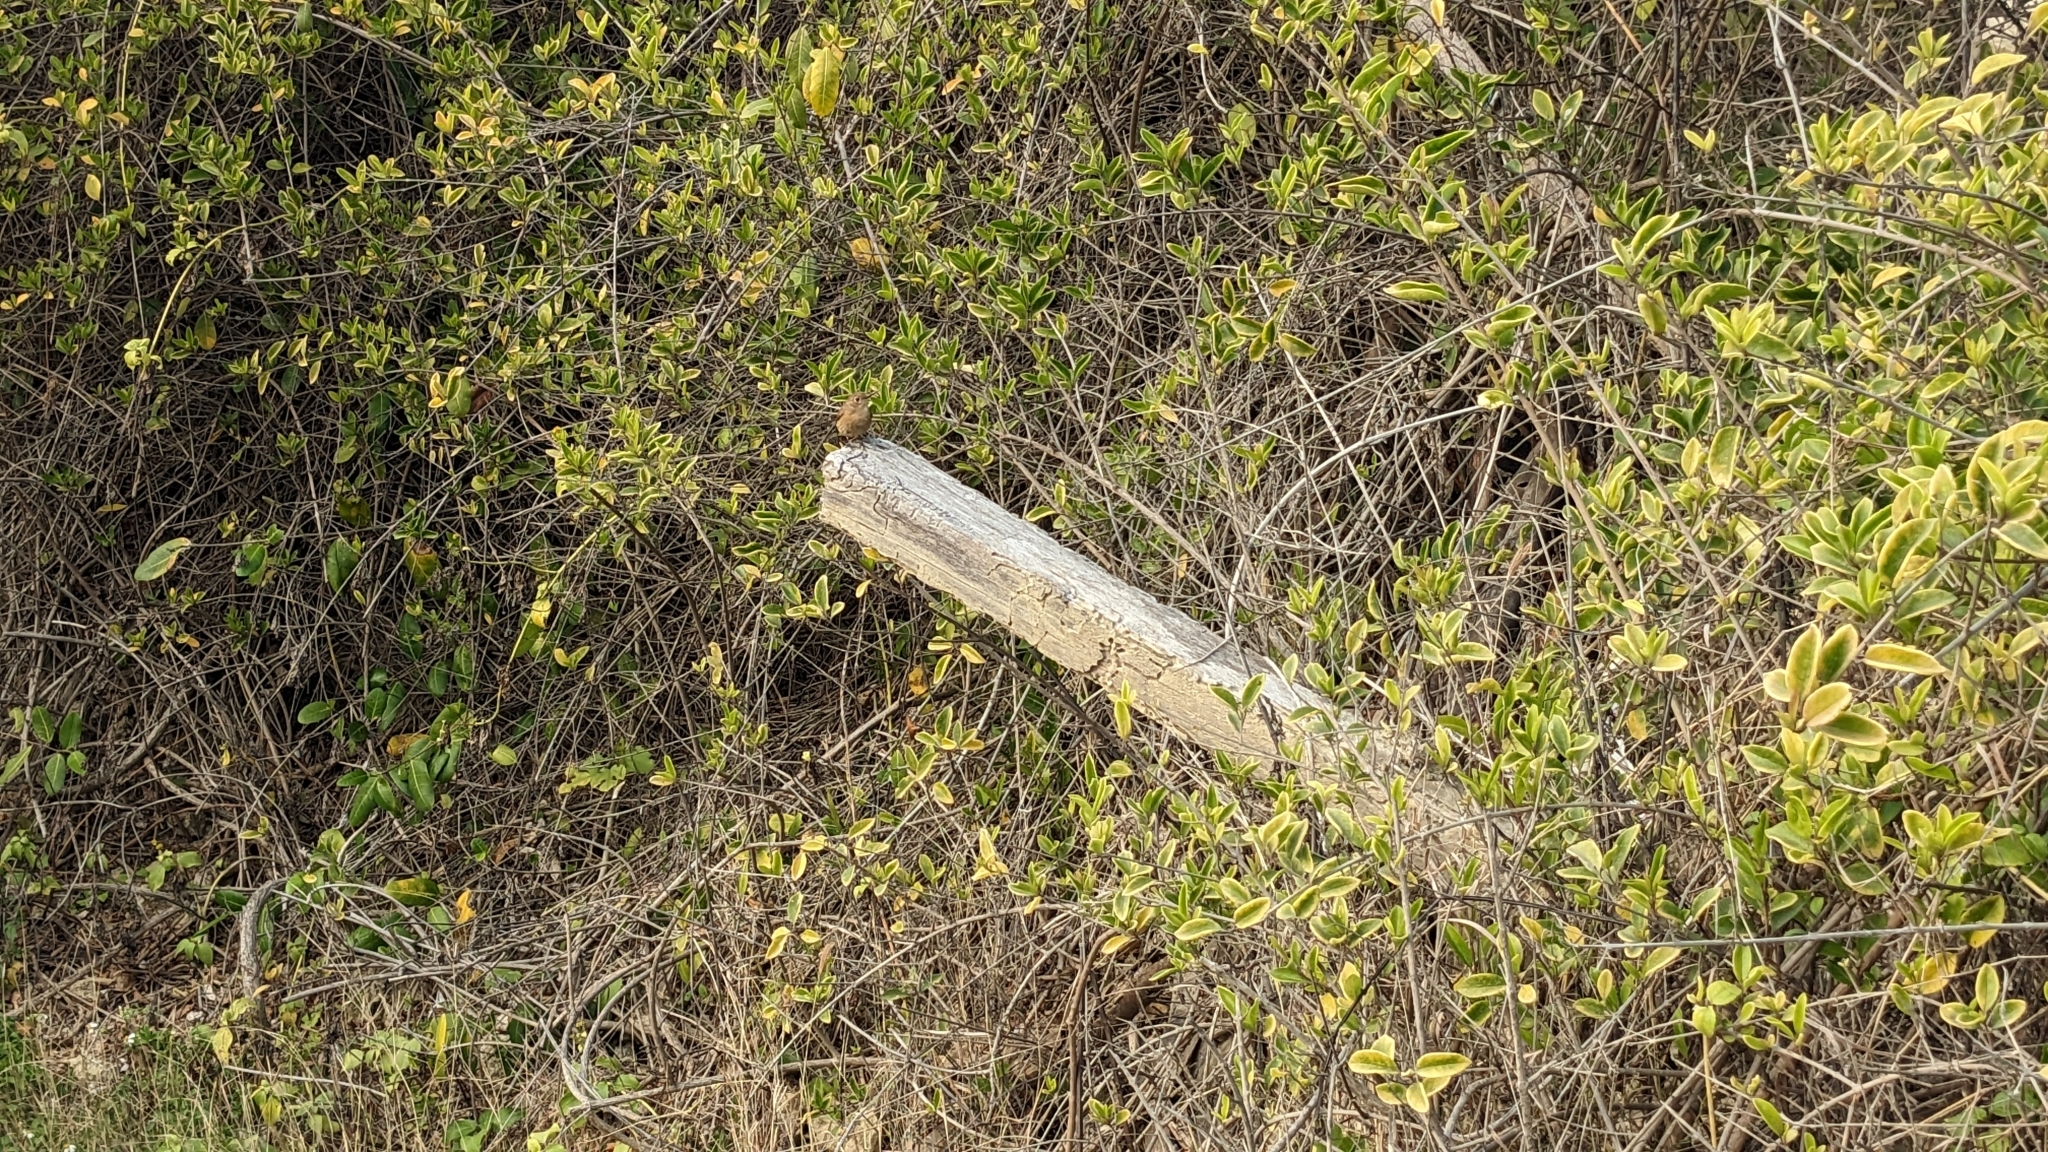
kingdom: Animalia
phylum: Chordata
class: Aves
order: Passeriformes
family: Muscicapidae
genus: Phoenicurus
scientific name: Phoenicurus auroreus
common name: Daurian redstart
